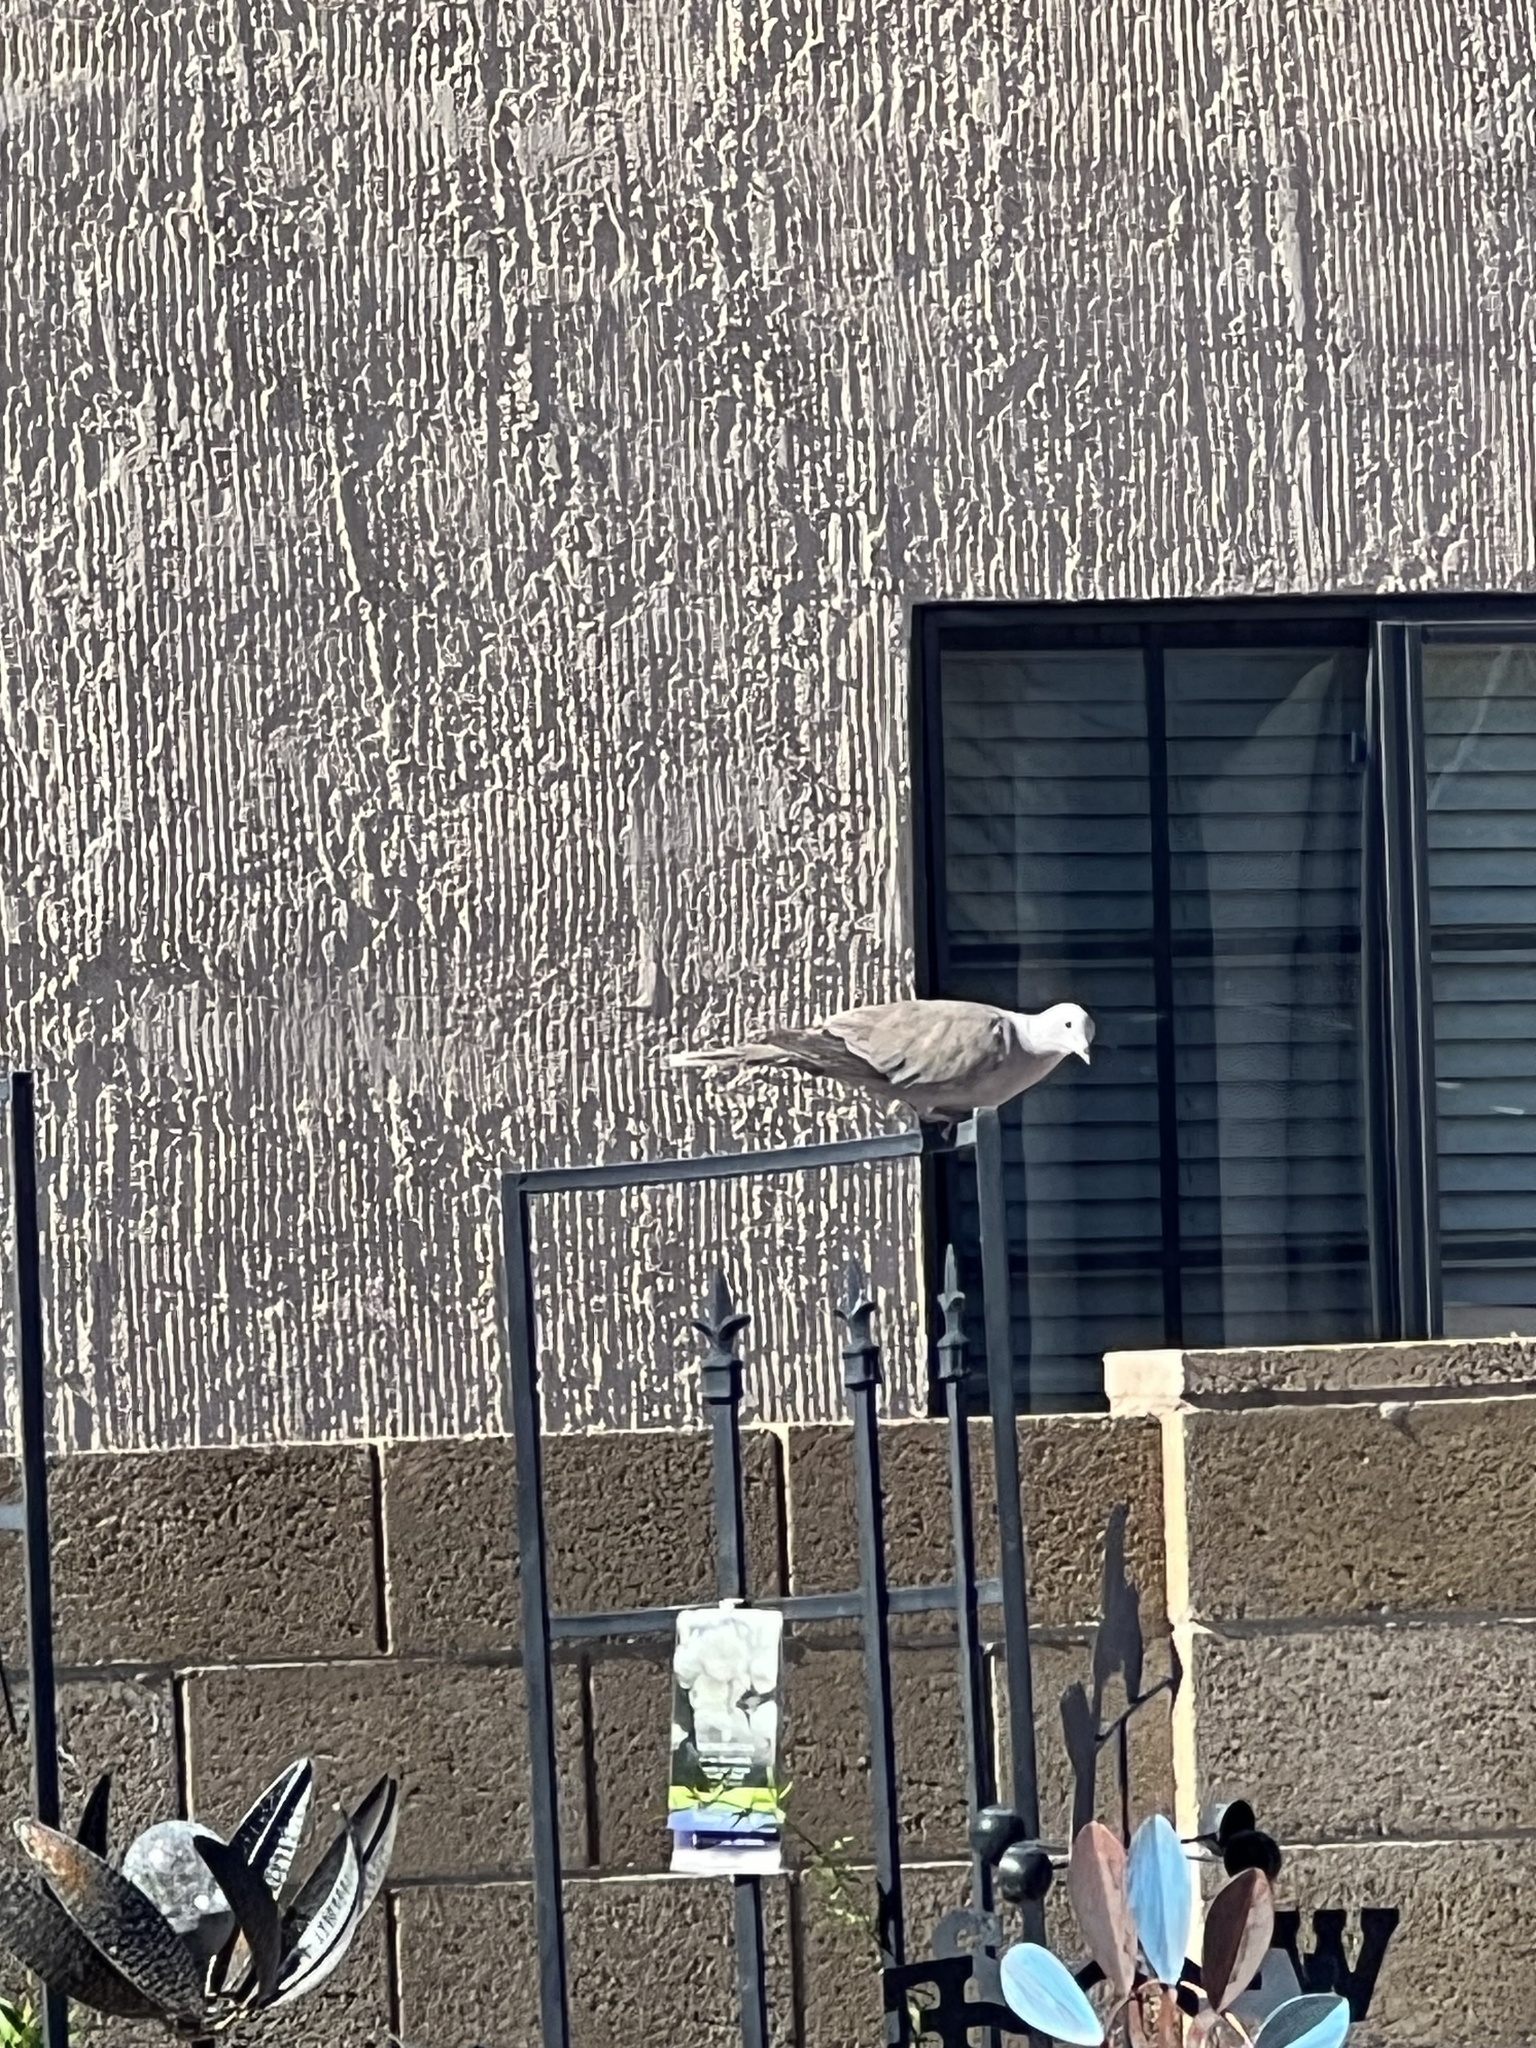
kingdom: Animalia
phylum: Chordata
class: Aves
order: Columbiformes
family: Columbidae
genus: Streptopelia
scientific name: Streptopelia decaocto
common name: Eurasian collared dove
